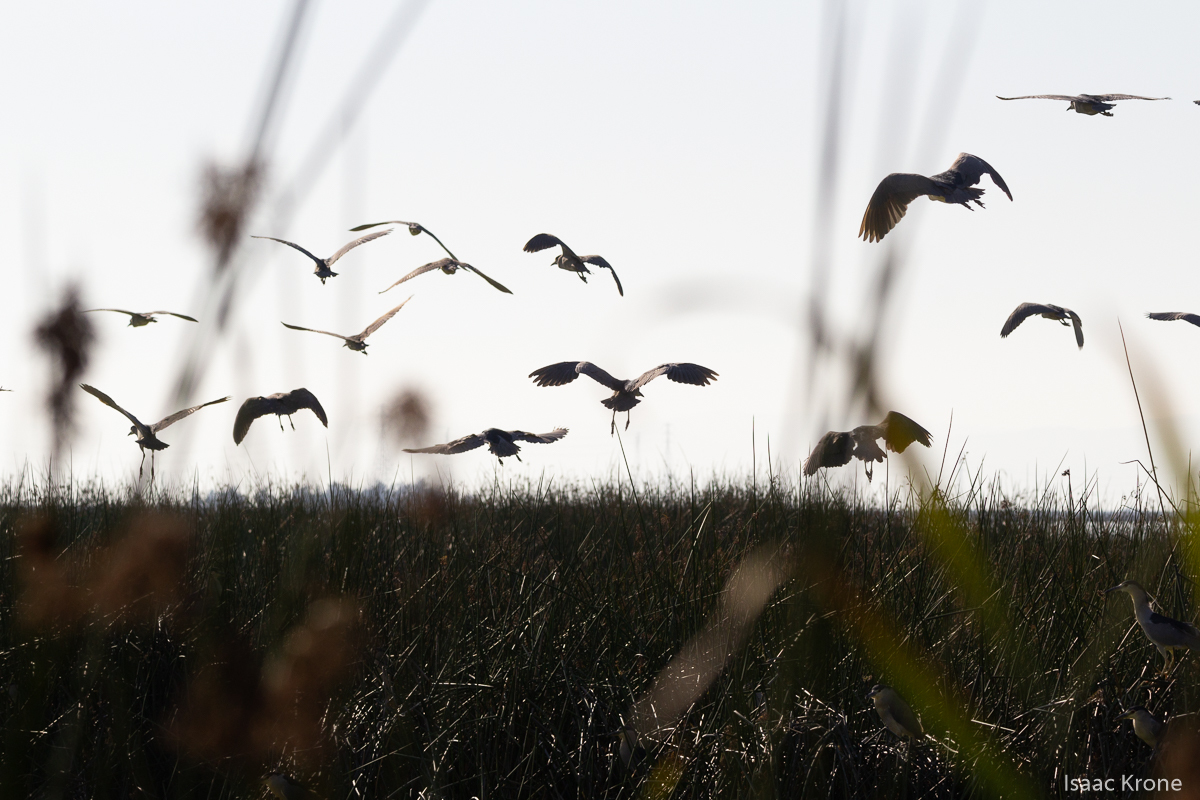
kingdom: Animalia
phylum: Chordata
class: Aves
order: Pelecaniformes
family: Ardeidae
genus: Nycticorax
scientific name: Nycticorax nycticorax
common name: Black-crowned night heron
